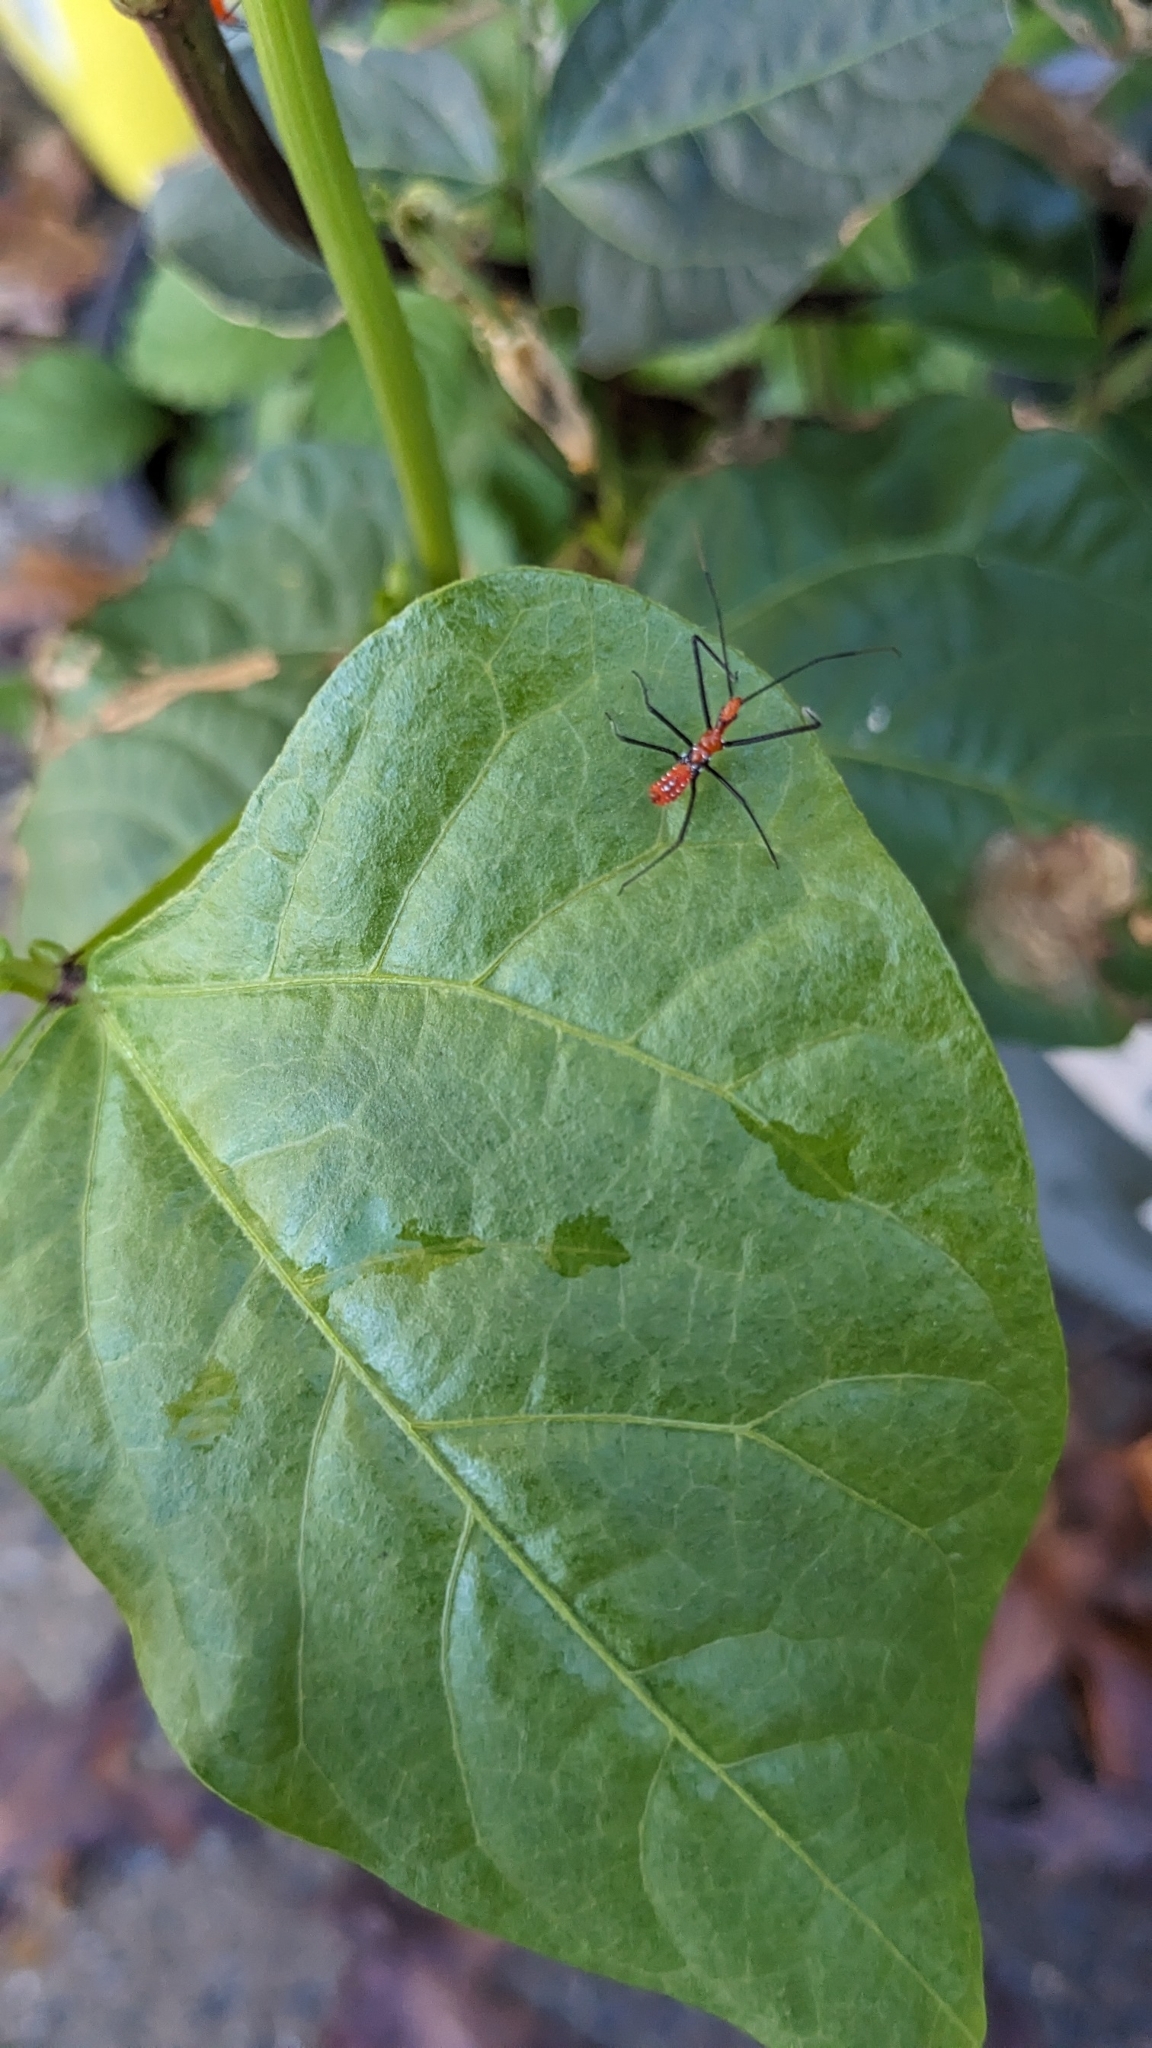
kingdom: Animalia
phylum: Arthropoda
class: Insecta
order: Hemiptera
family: Reduviidae
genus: Zelus
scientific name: Zelus longipes
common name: Milkweed assassin bug
